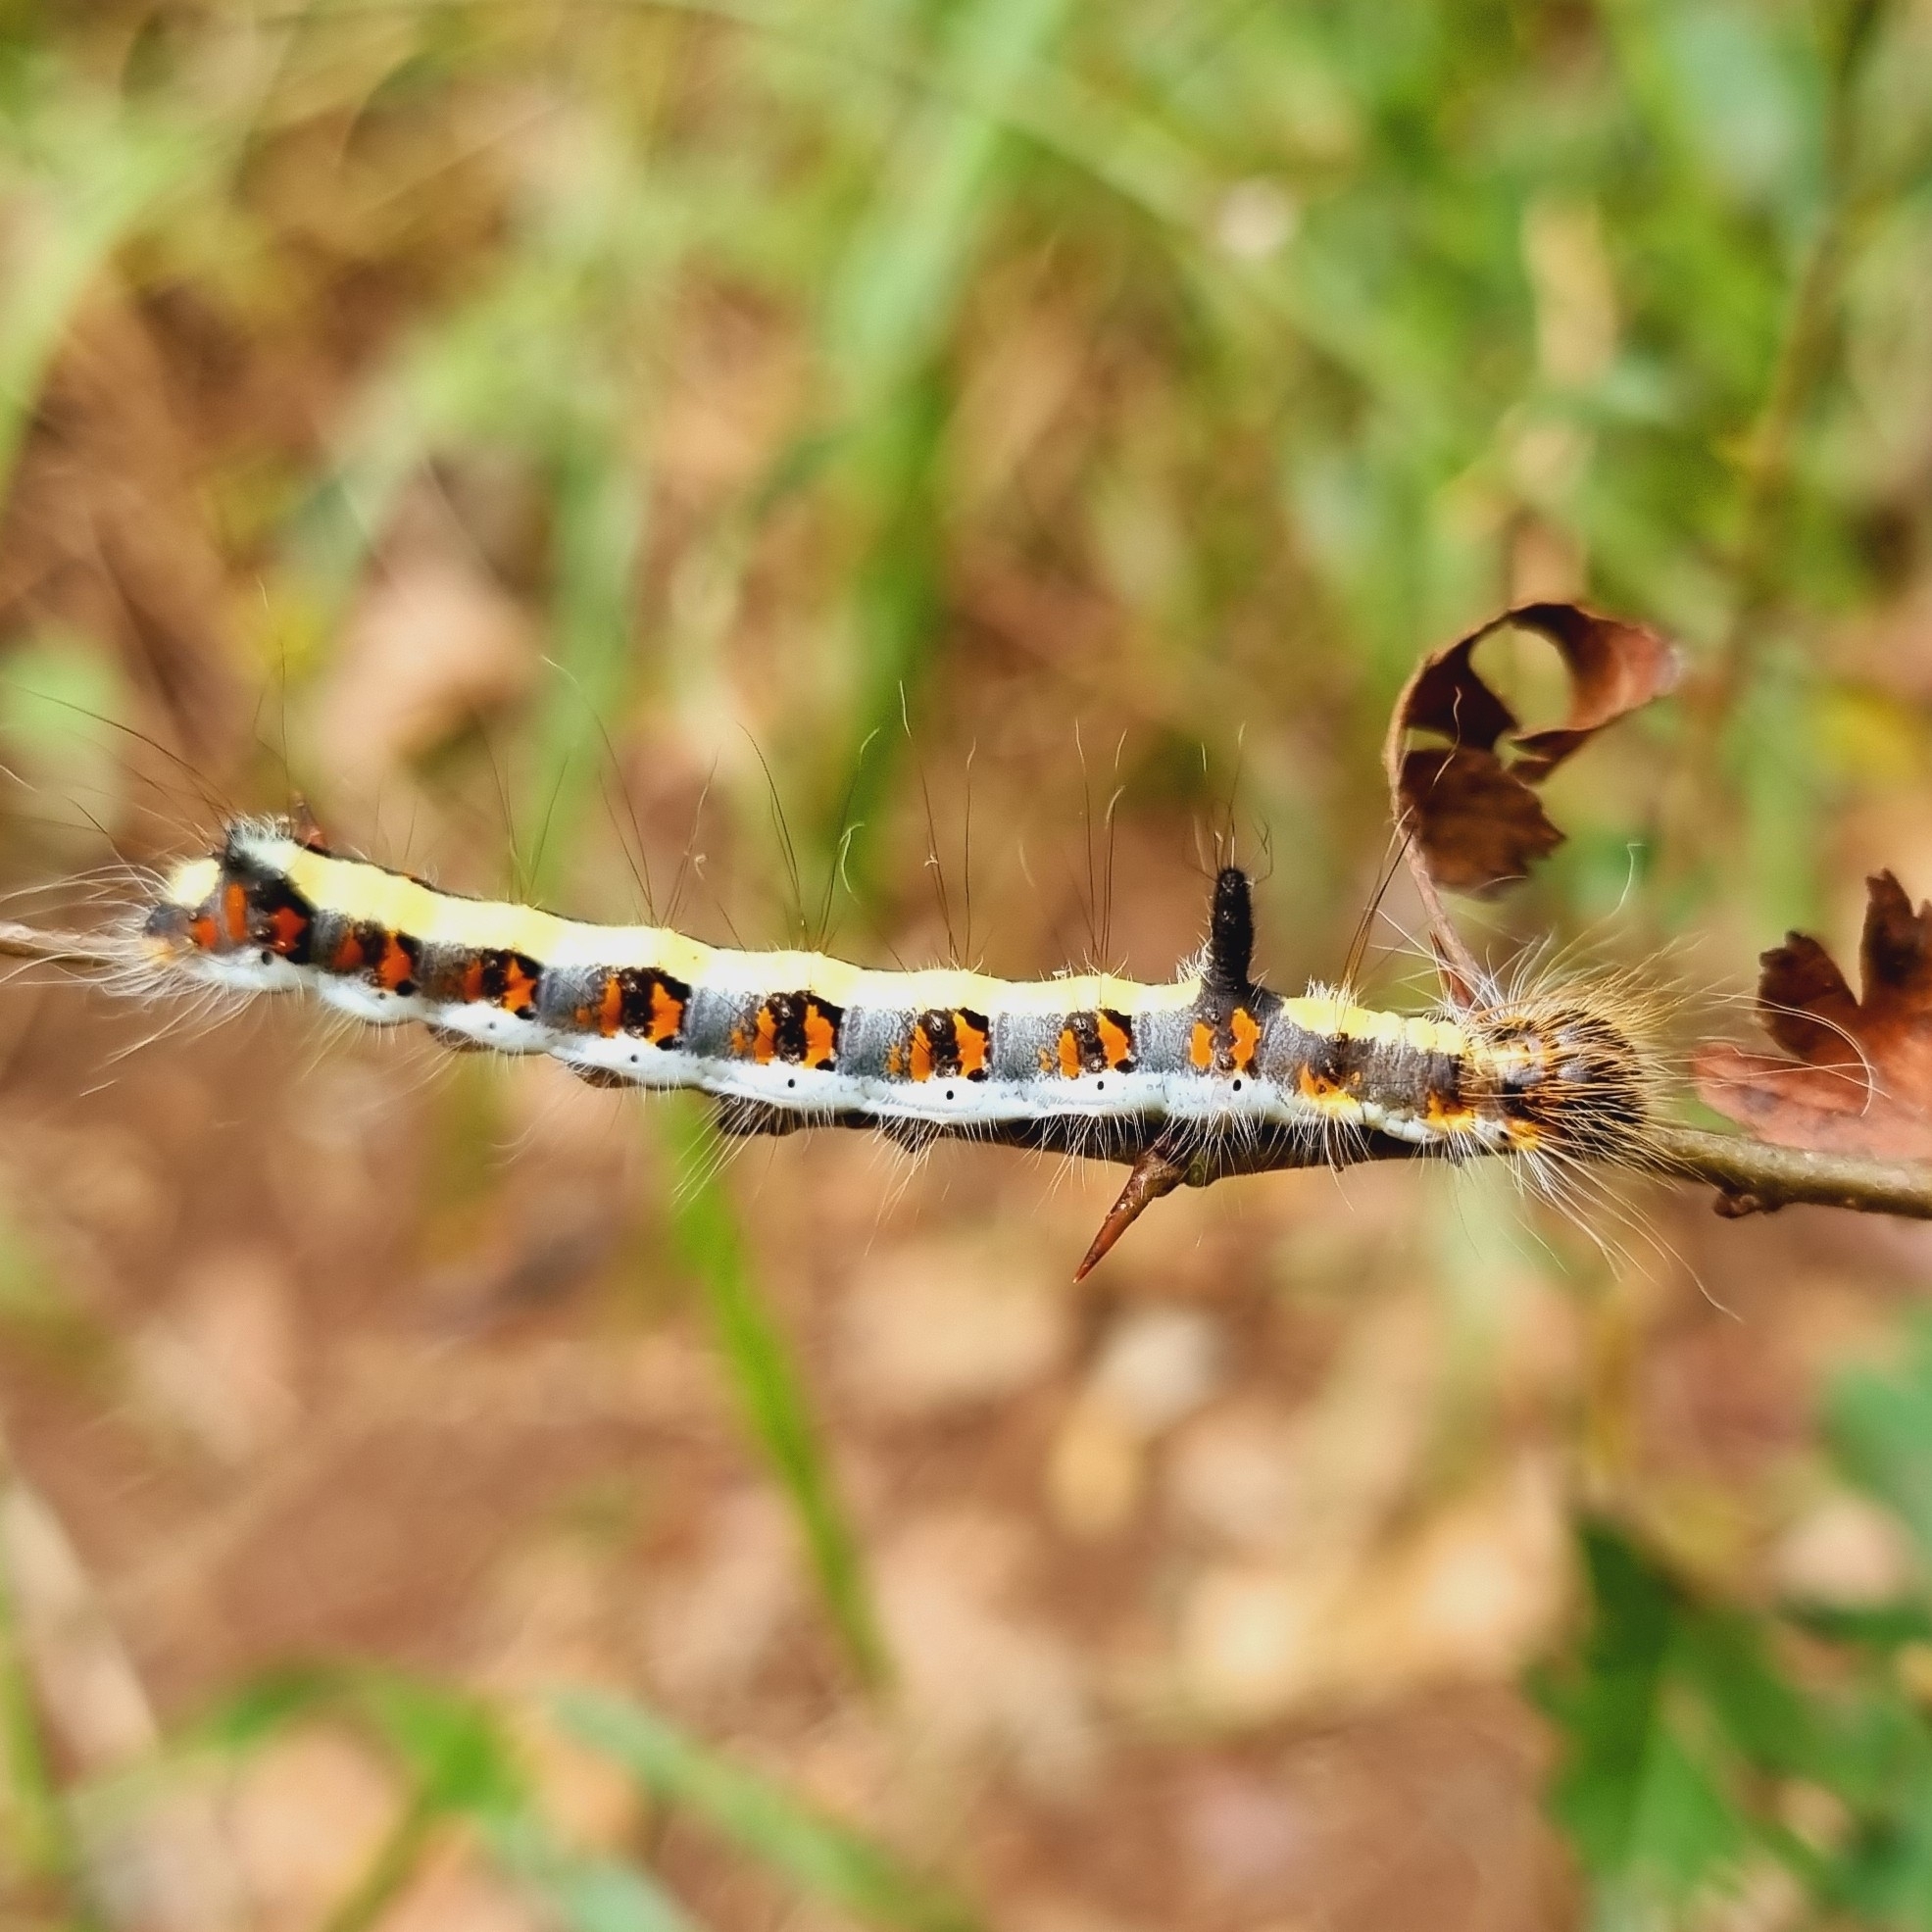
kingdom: Animalia
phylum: Arthropoda
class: Insecta
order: Lepidoptera
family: Noctuidae
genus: Acronicta
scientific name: Acronicta psi
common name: Grey dagger
